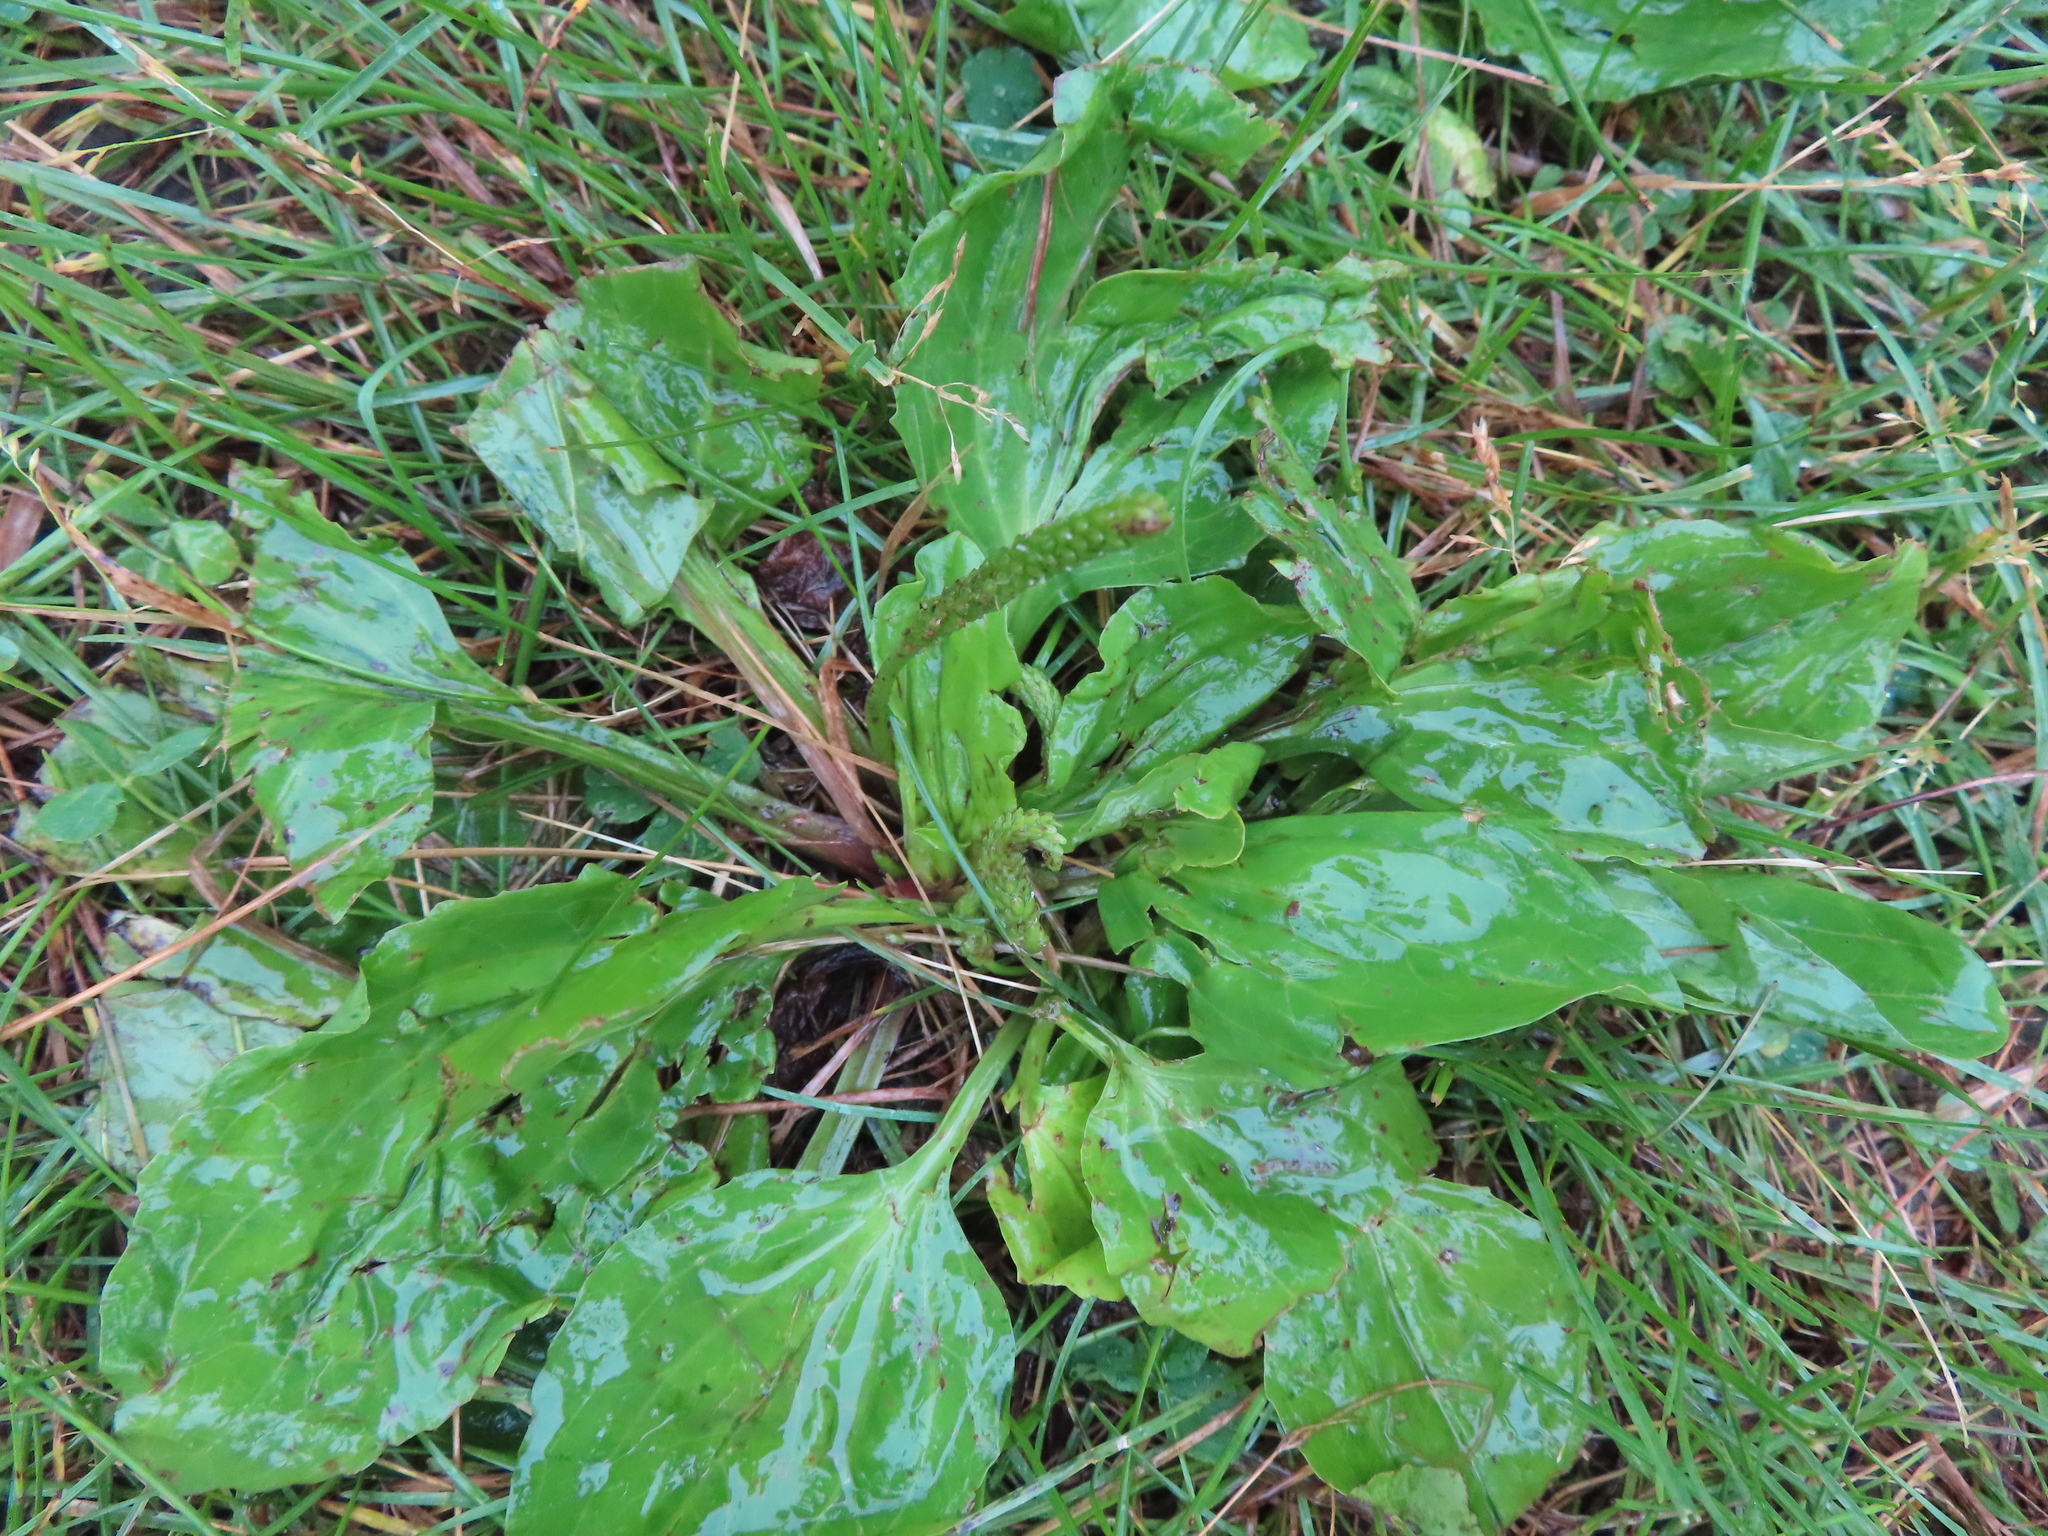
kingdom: Plantae
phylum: Tracheophyta
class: Magnoliopsida
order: Lamiales
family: Plantaginaceae
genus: Plantago
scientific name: Plantago rugelii
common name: American plantain
